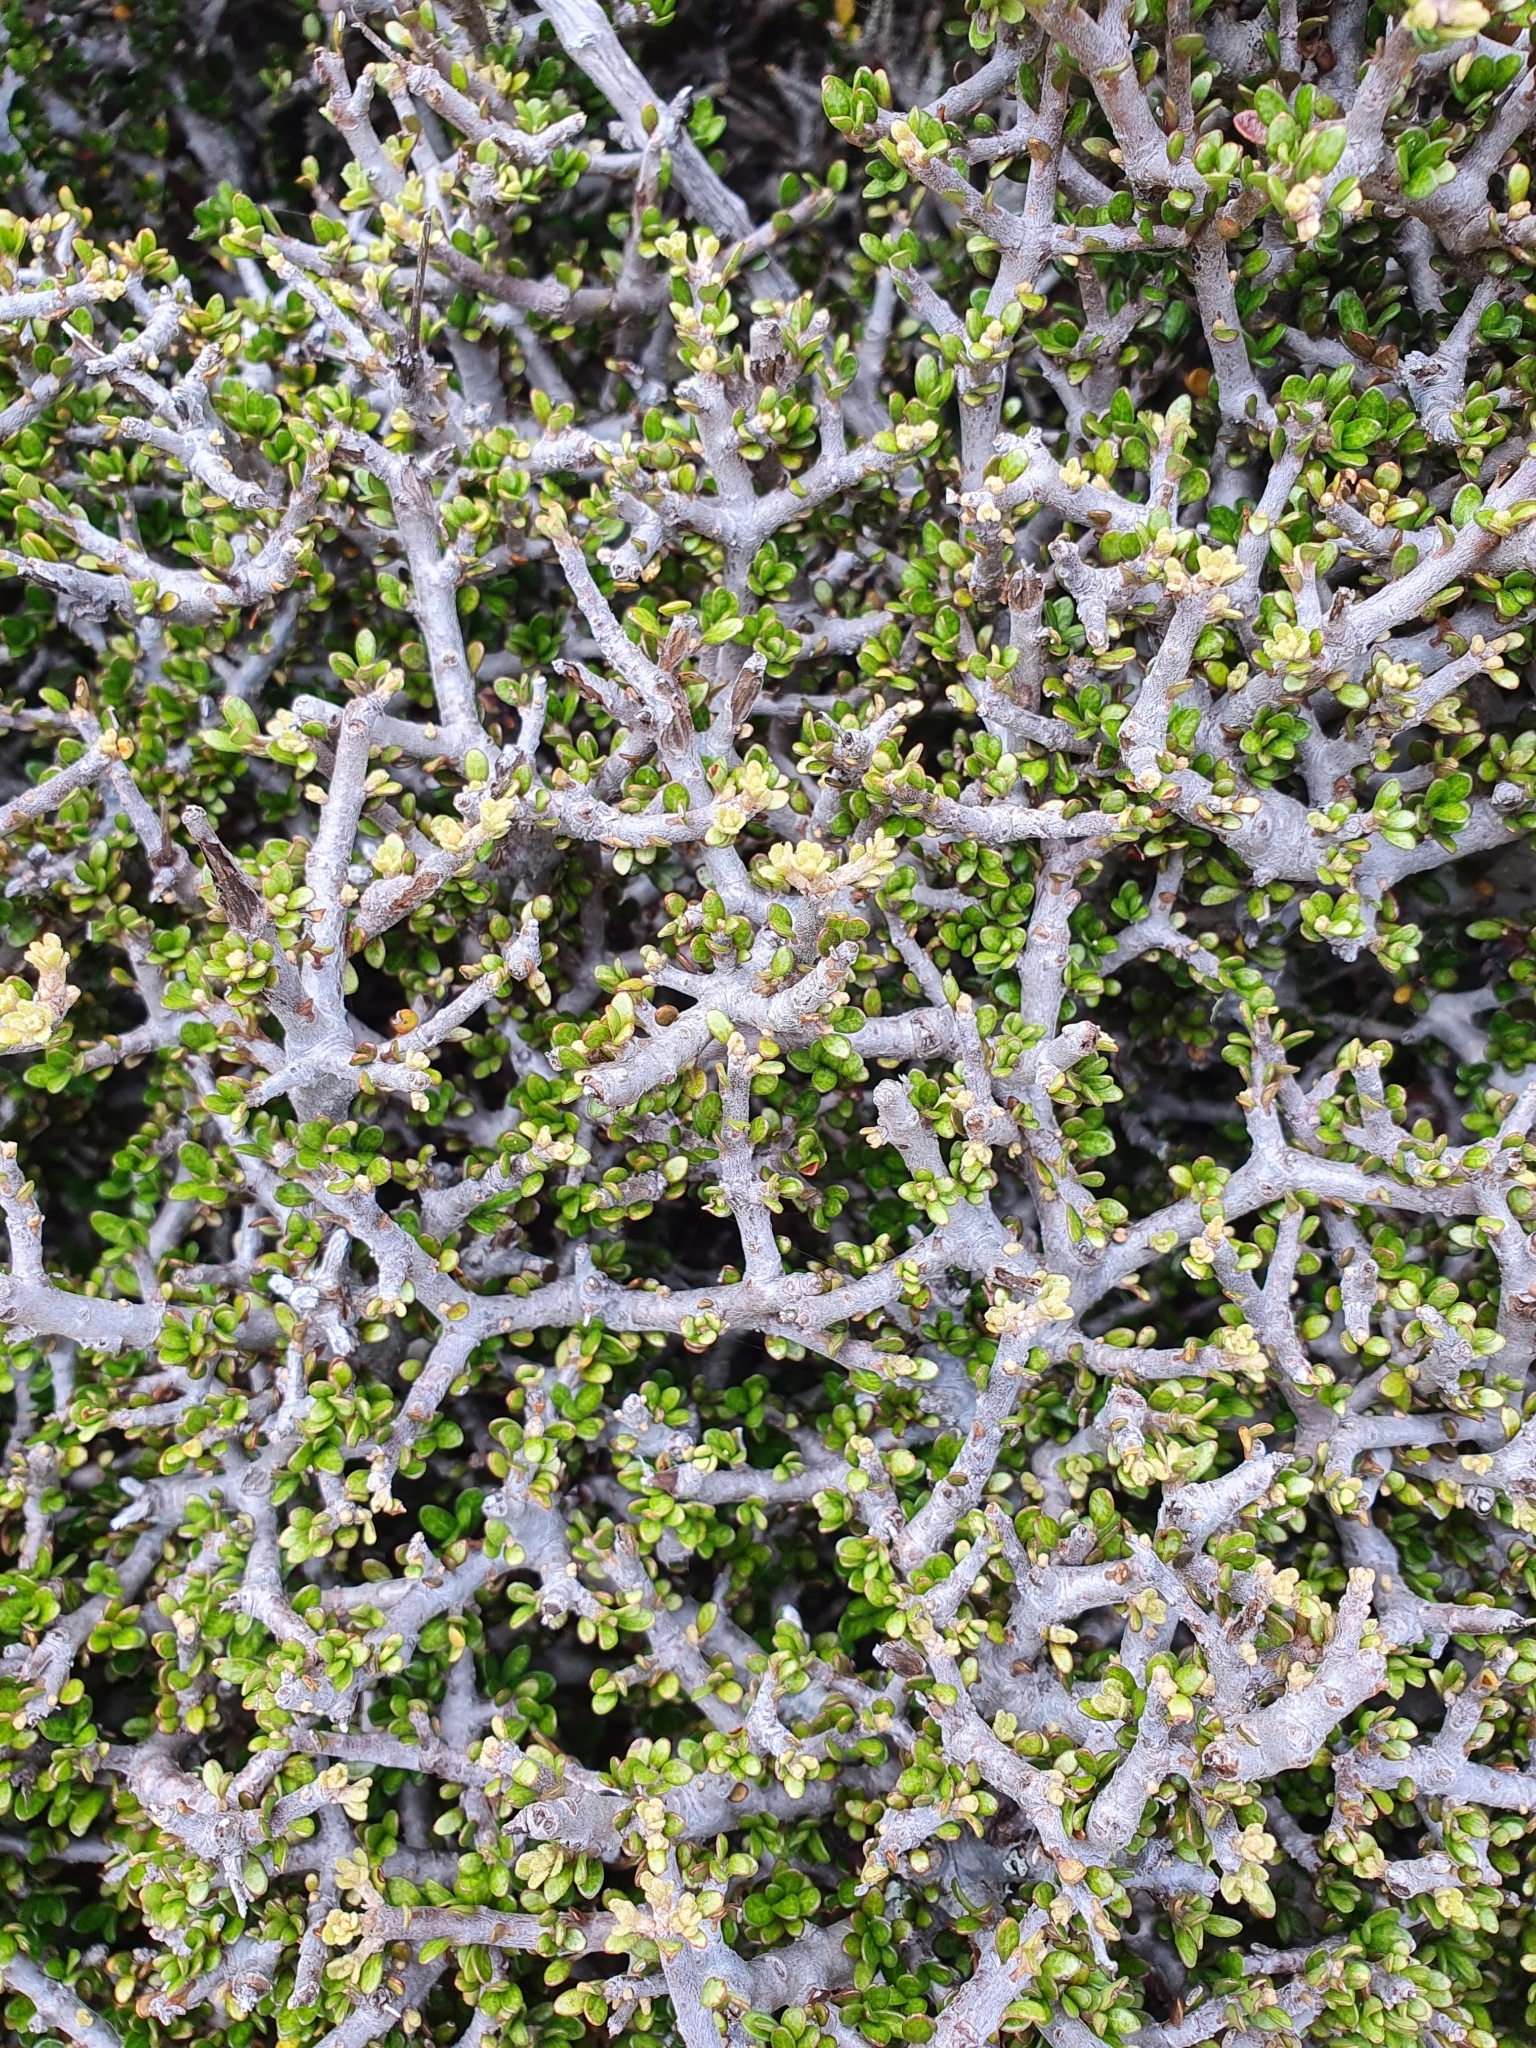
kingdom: Plantae
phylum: Tracheophyta
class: Magnoliopsida
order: Malpighiales
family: Violaceae
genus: Melicytus
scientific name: Melicytus alpinus
